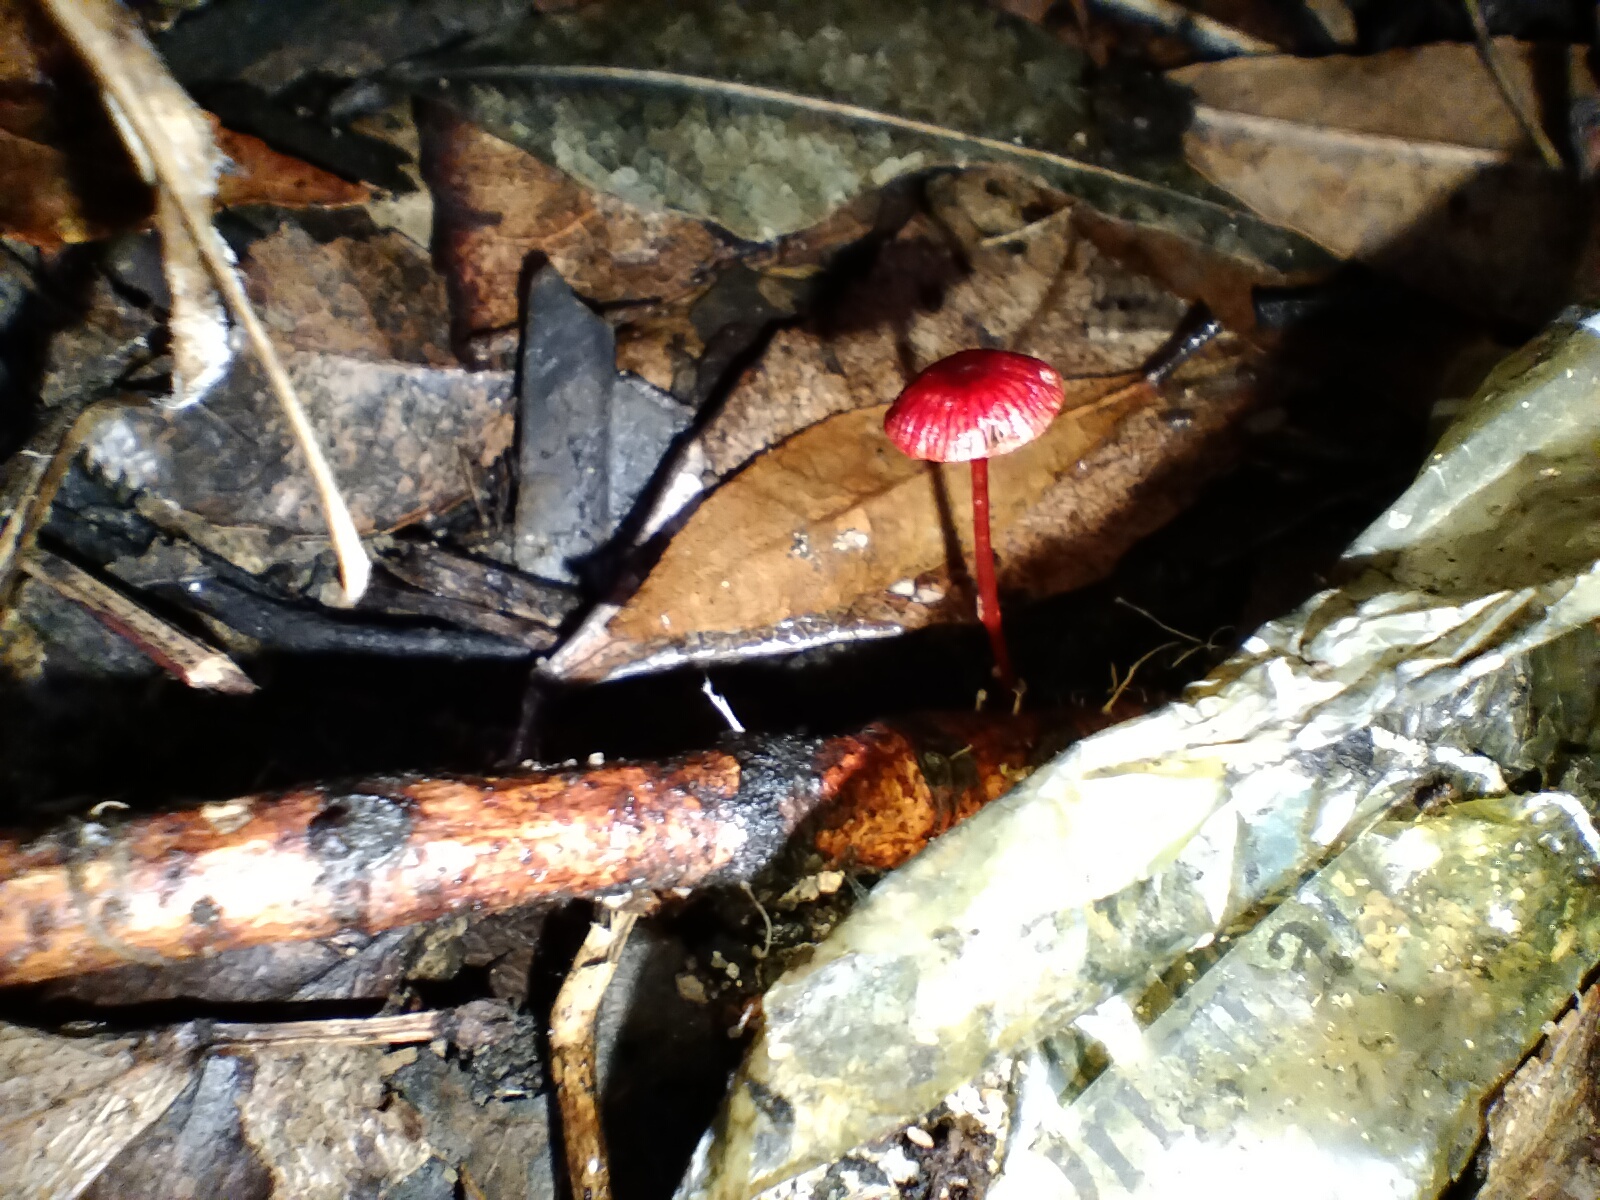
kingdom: Fungi
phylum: Basidiomycota
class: Agaricomycetes
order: Agaricales
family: Mycenaceae
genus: Cruentomycena
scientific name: Cruentomycena viscidocruenta
